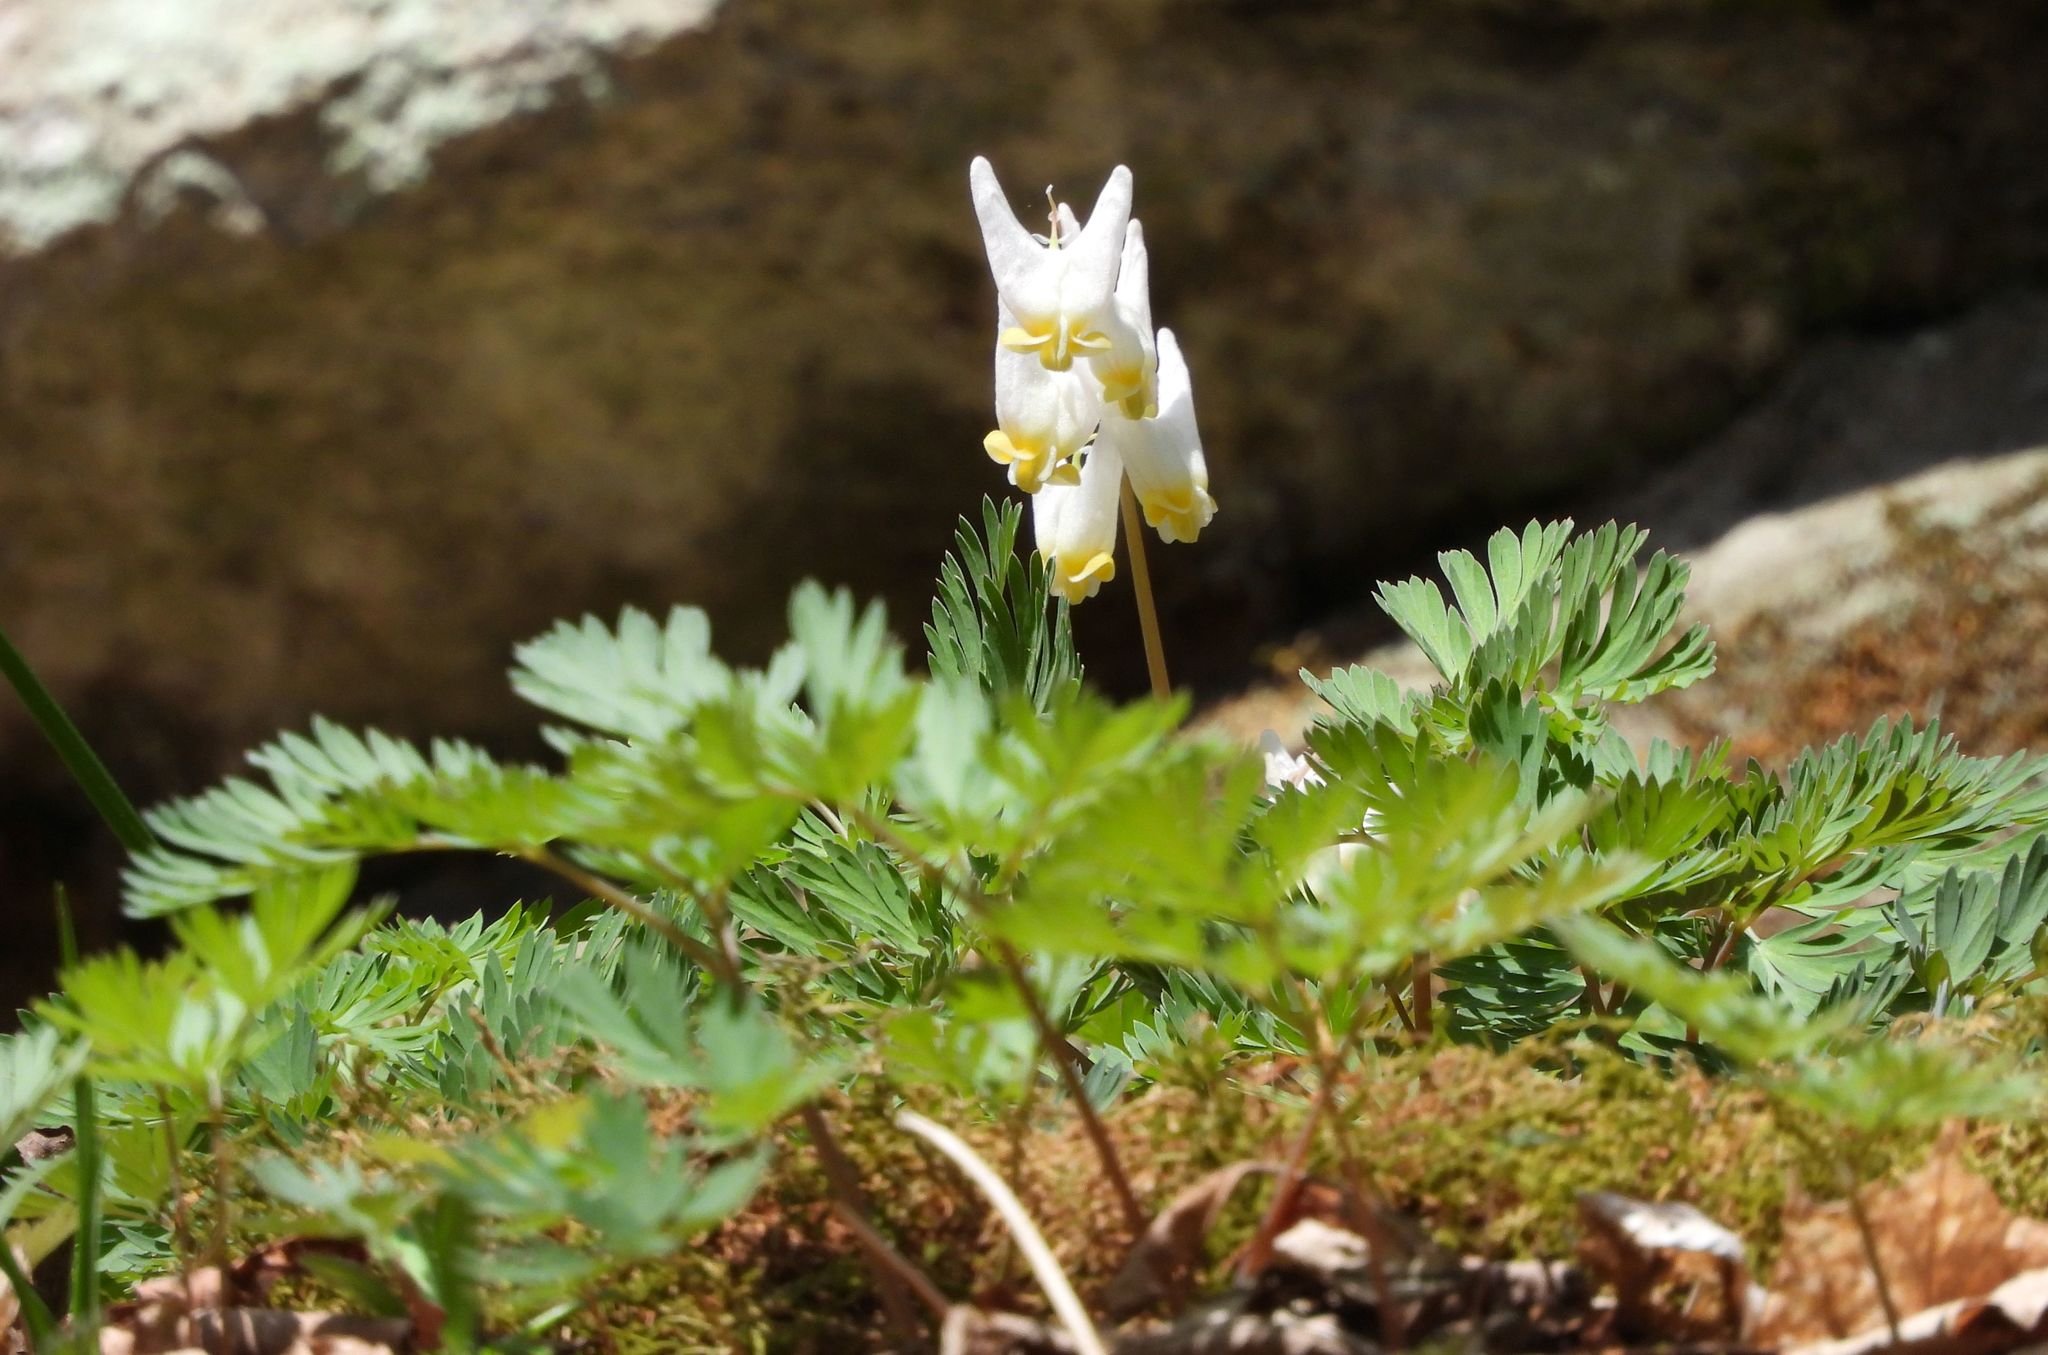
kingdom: Plantae
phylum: Tracheophyta
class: Magnoliopsida
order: Ranunculales
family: Papaveraceae
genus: Dicentra
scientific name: Dicentra cucullaria
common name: Dutchman's breeches
